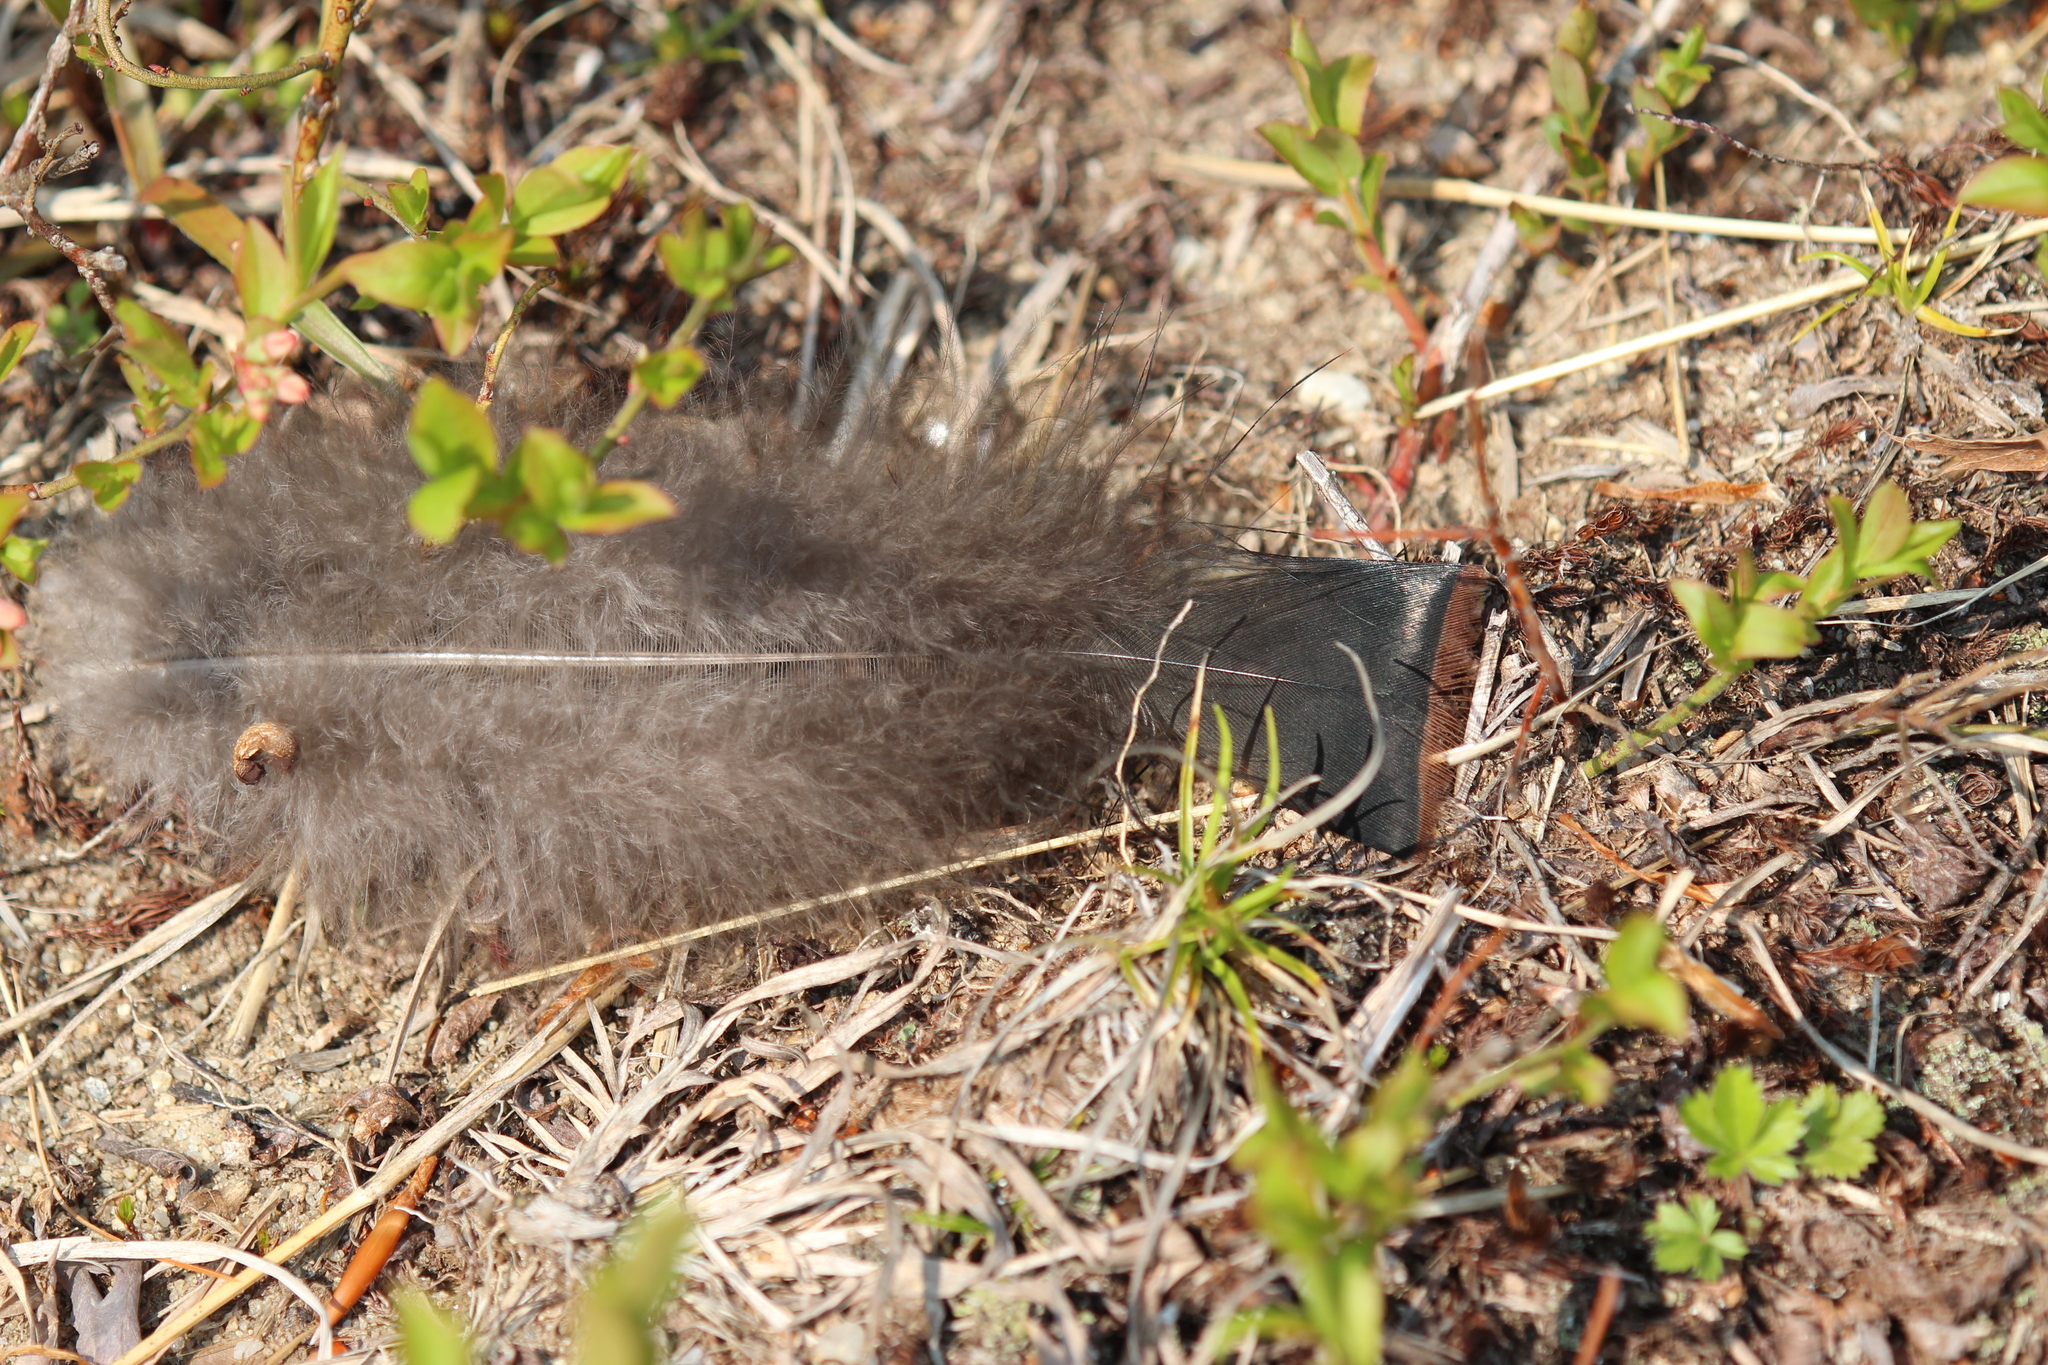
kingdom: Animalia
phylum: Chordata
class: Aves
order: Galliformes
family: Phasianidae
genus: Meleagris
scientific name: Meleagris gallopavo
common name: Wild turkey
